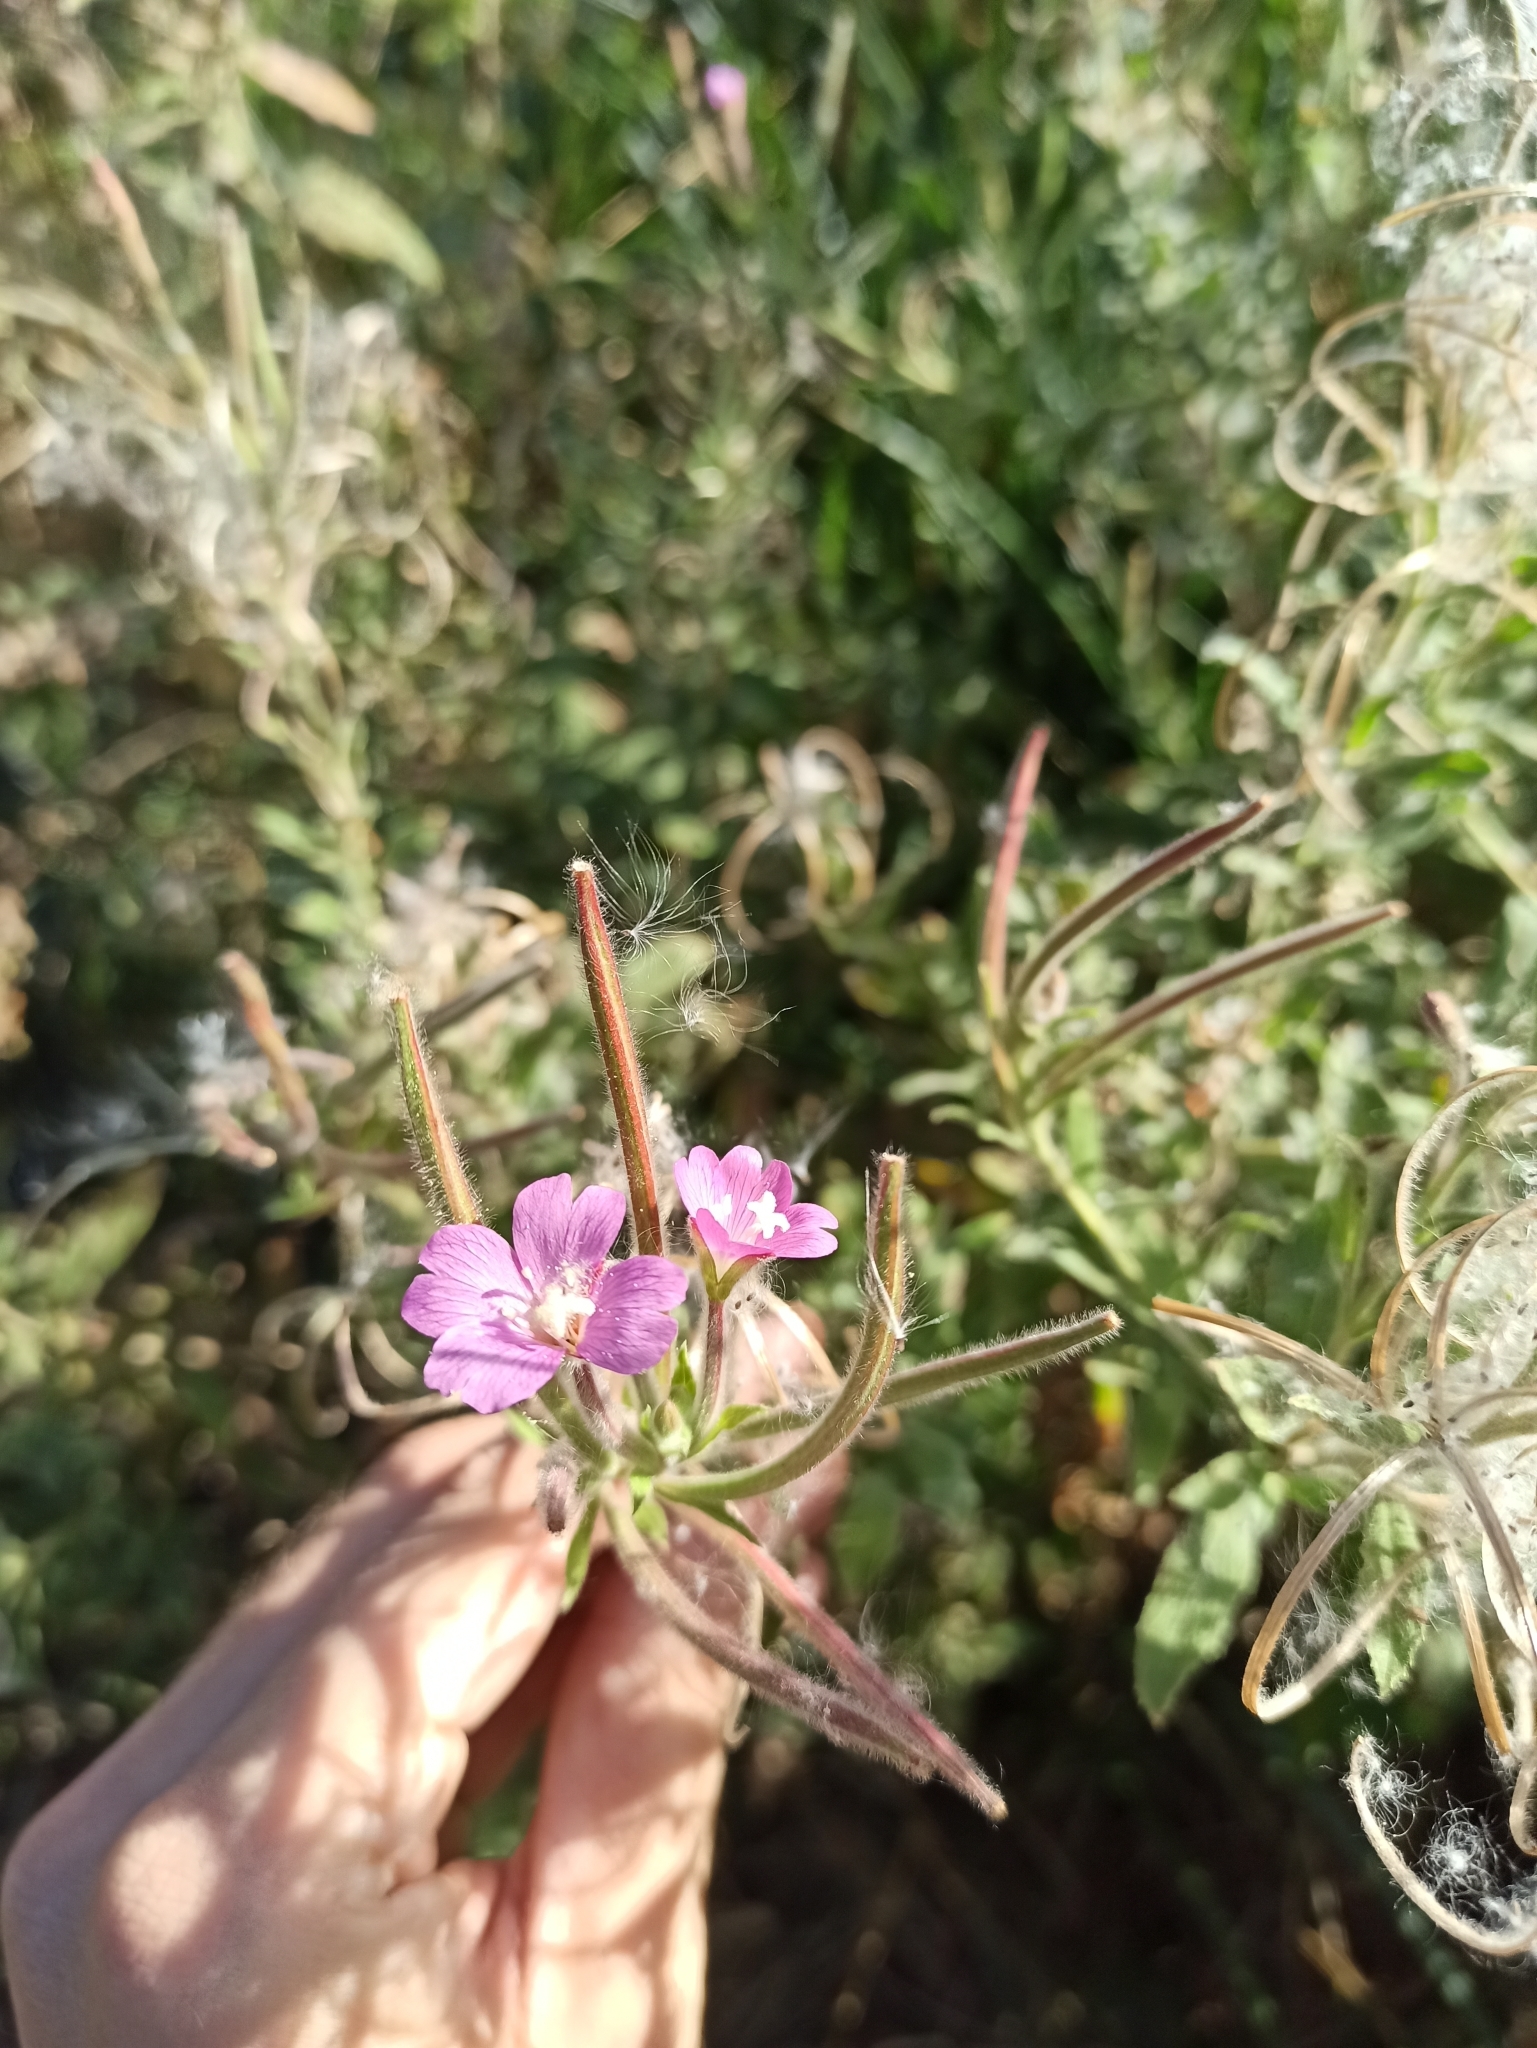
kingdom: Plantae
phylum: Tracheophyta
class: Magnoliopsida
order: Myrtales
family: Onagraceae
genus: Epilobium
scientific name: Epilobium hirsutum
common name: Great willowherb
